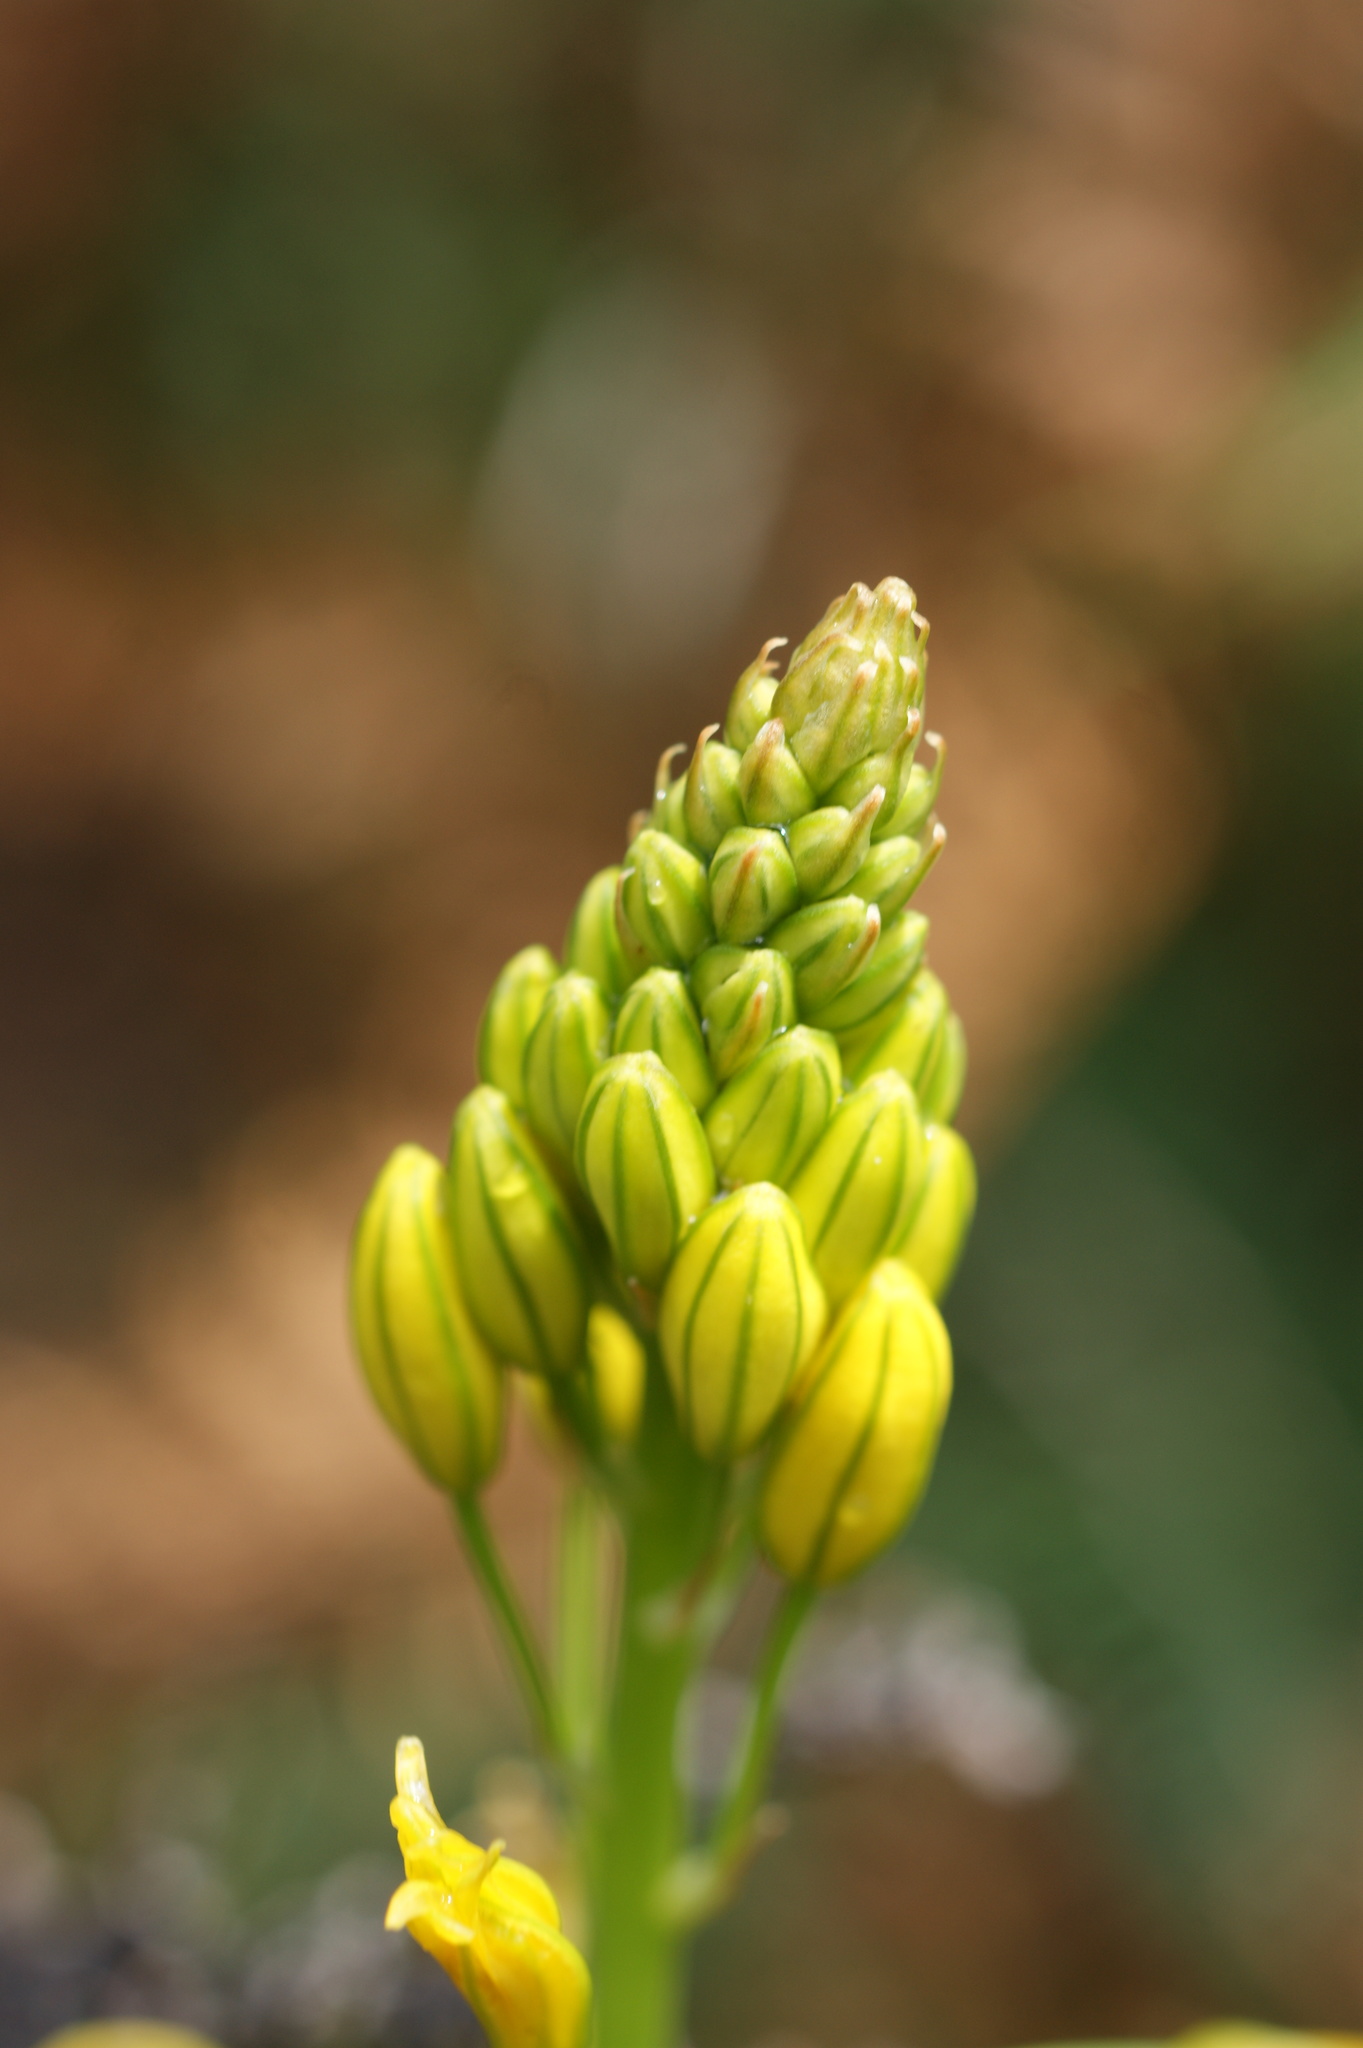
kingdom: Plantae
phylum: Tracheophyta
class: Liliopsida
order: Asparagales
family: Asphodelaceae
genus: Bulbine
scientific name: Bulbine bulbosa
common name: Golden-lily
